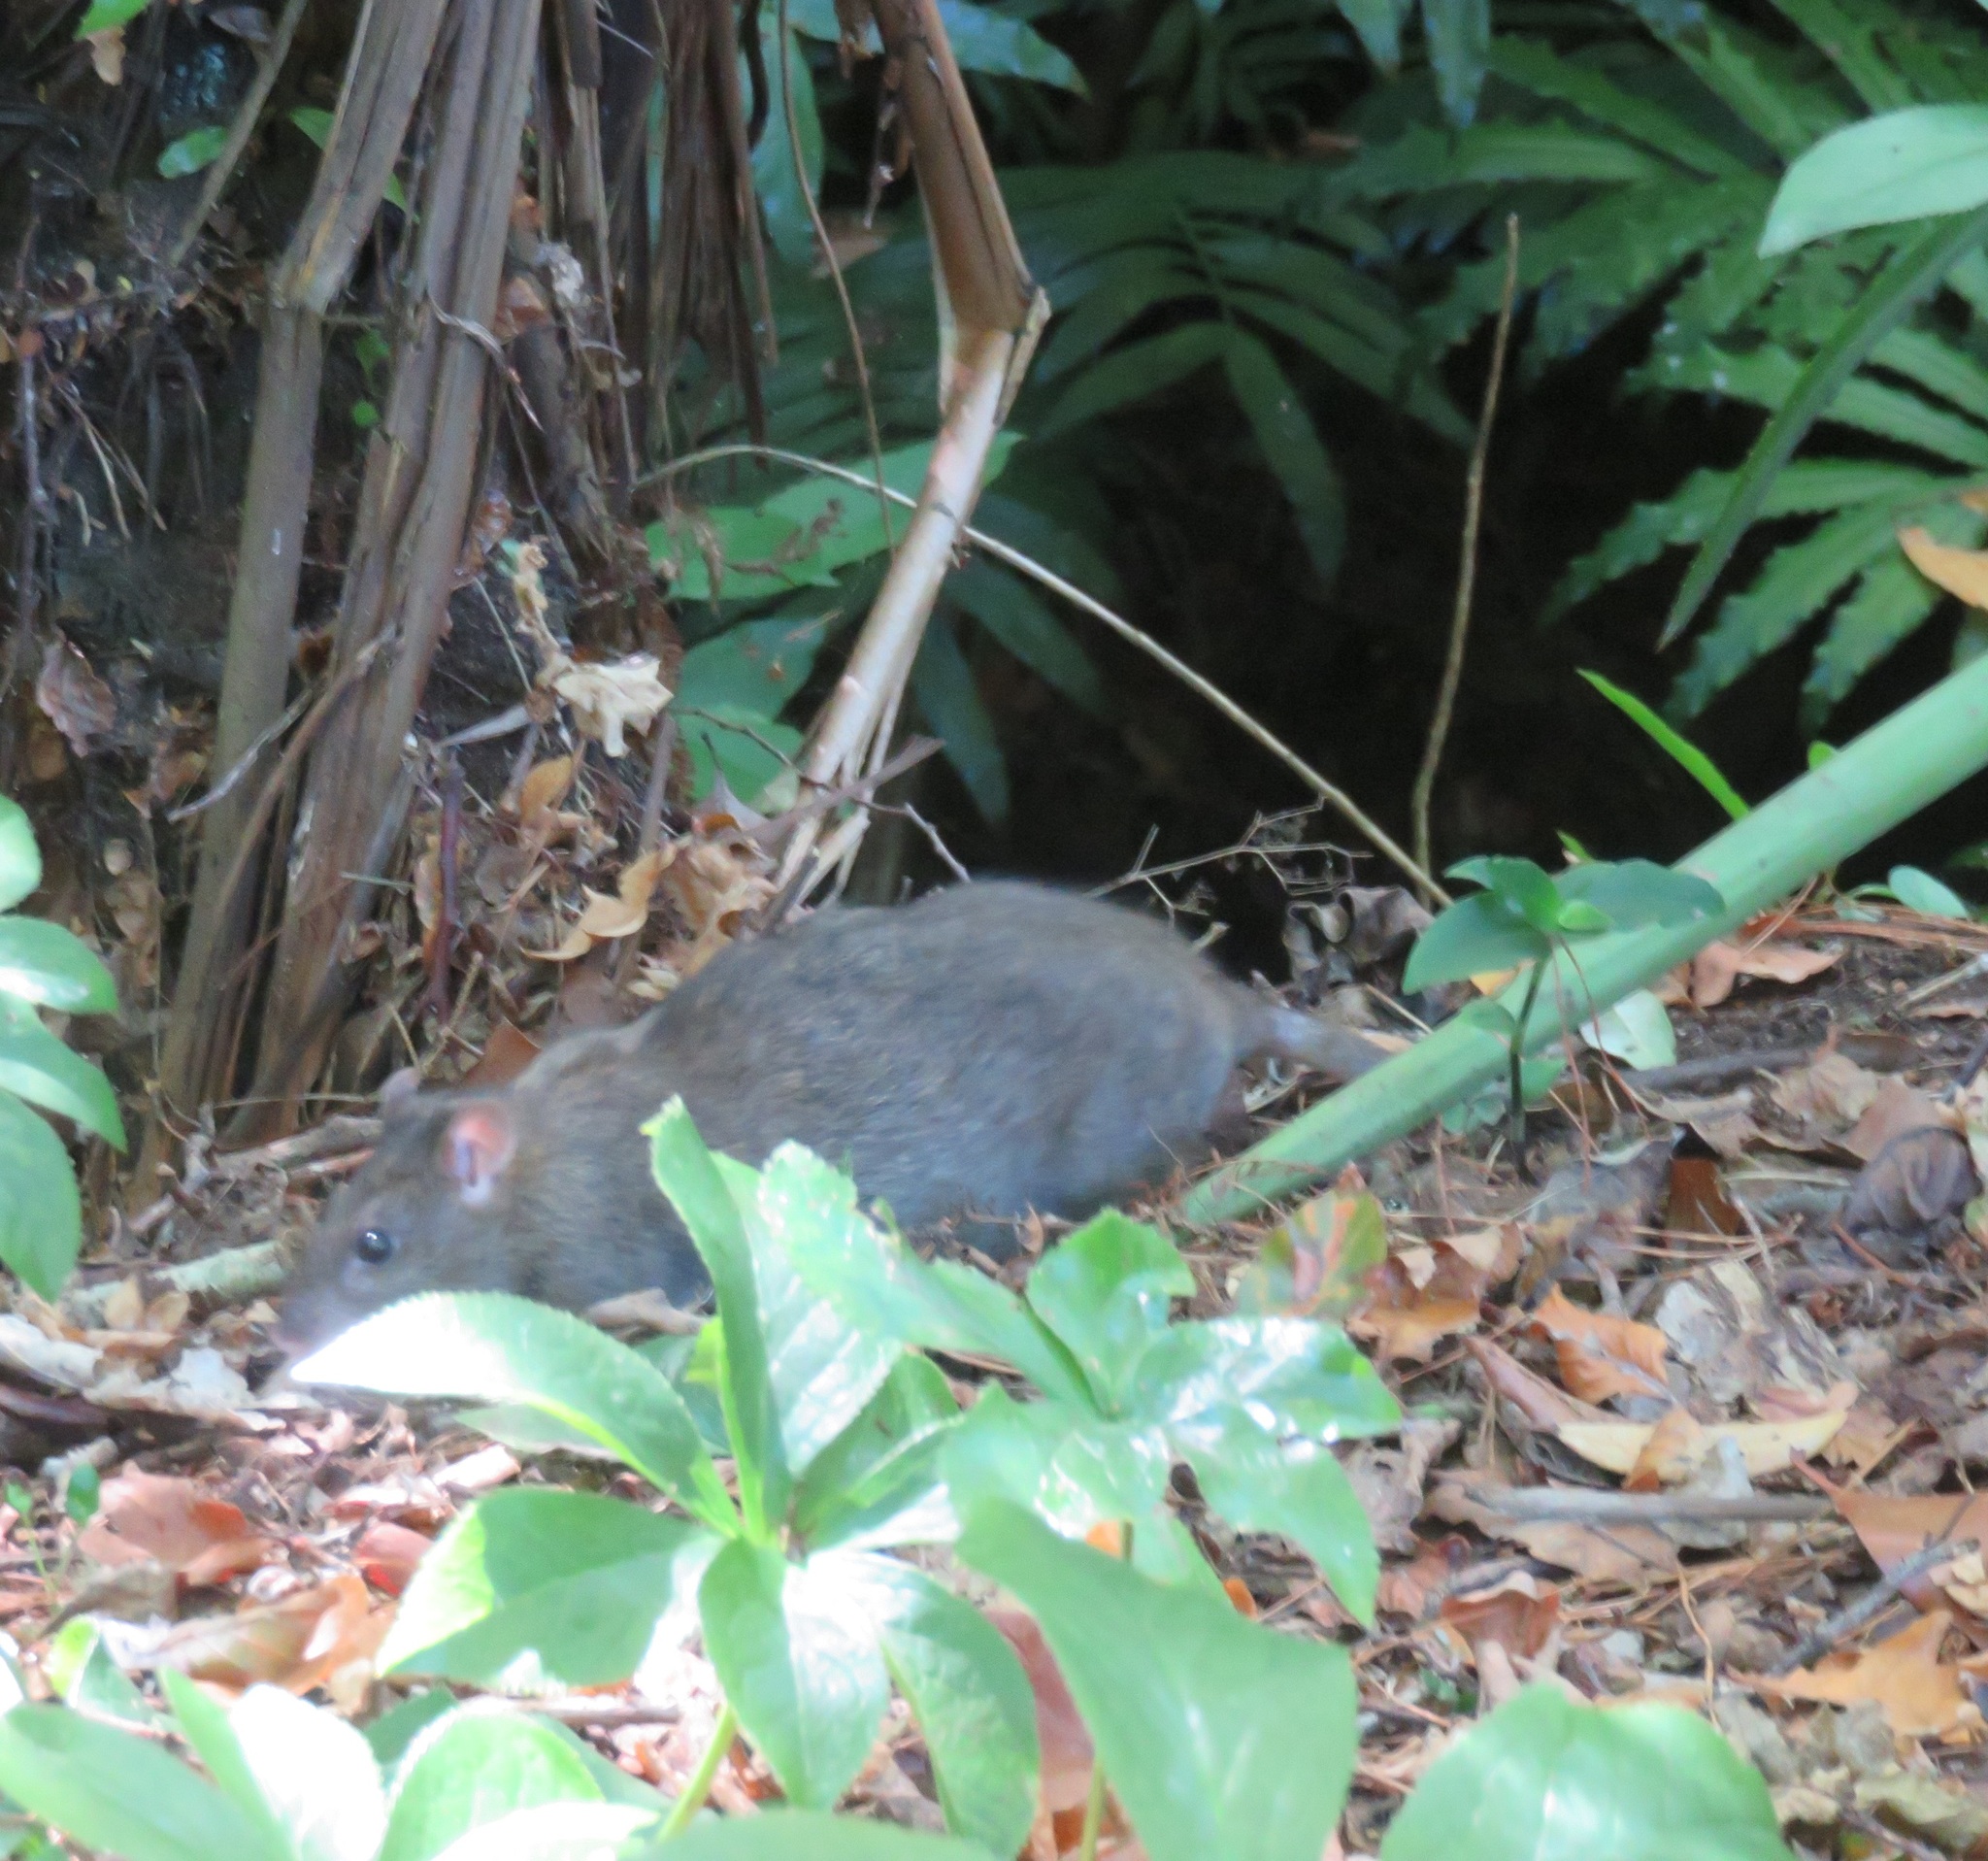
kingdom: Animalia
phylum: Chordata
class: Mammalia
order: Rodentia
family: Muridae
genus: Rattus
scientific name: Rattus norvegicus
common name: Brown rat
